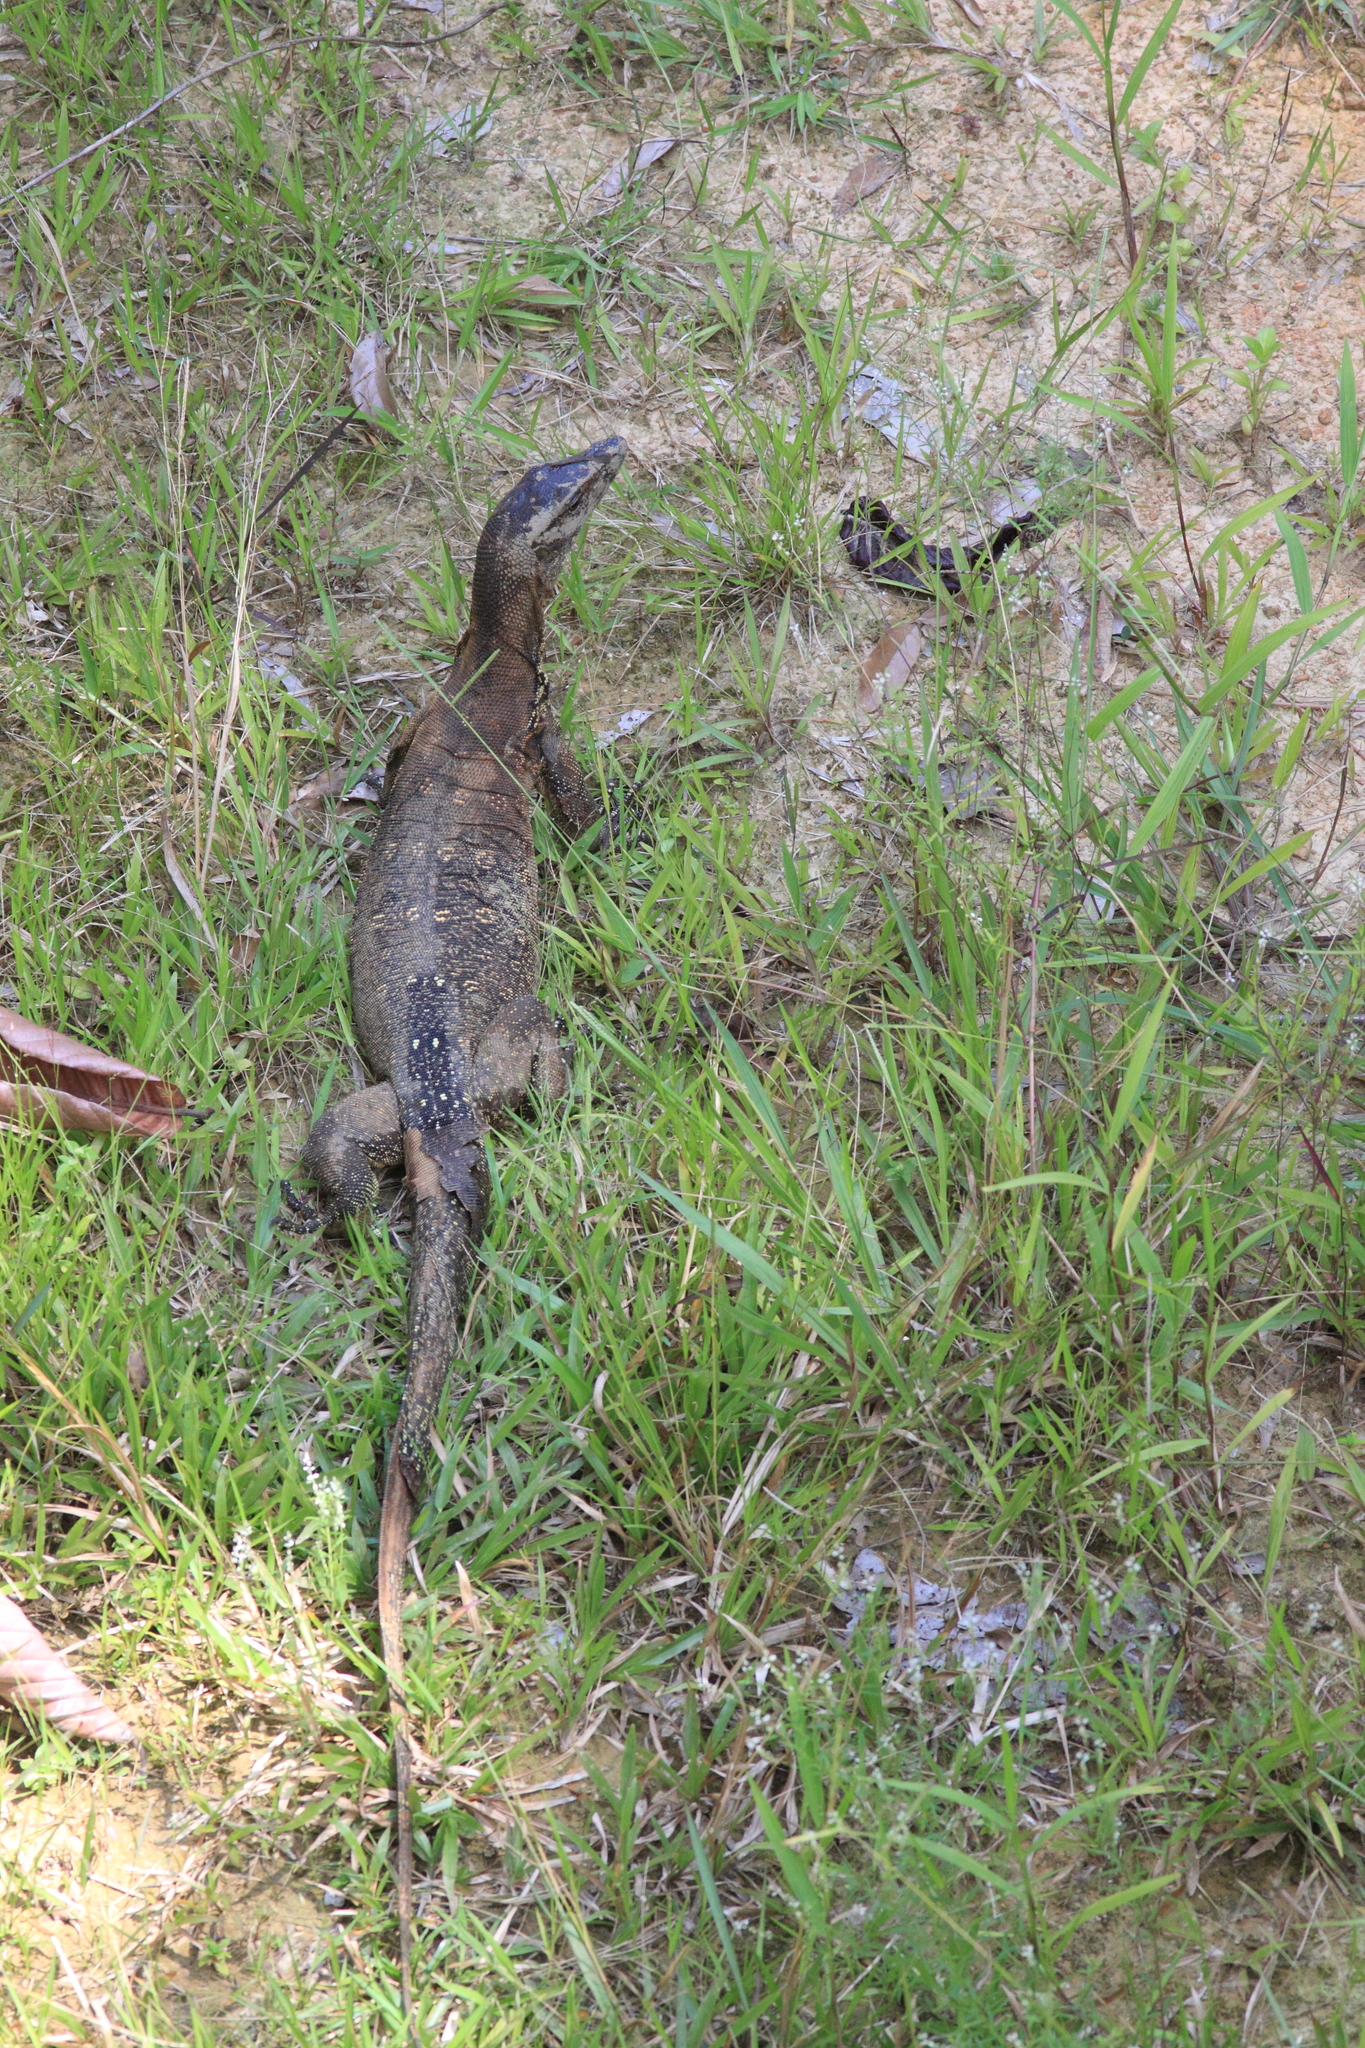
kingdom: Animalia
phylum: Chordata
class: Squamata
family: Varanidae
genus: Varanus
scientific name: Varanus salvator
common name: Common water monitor
